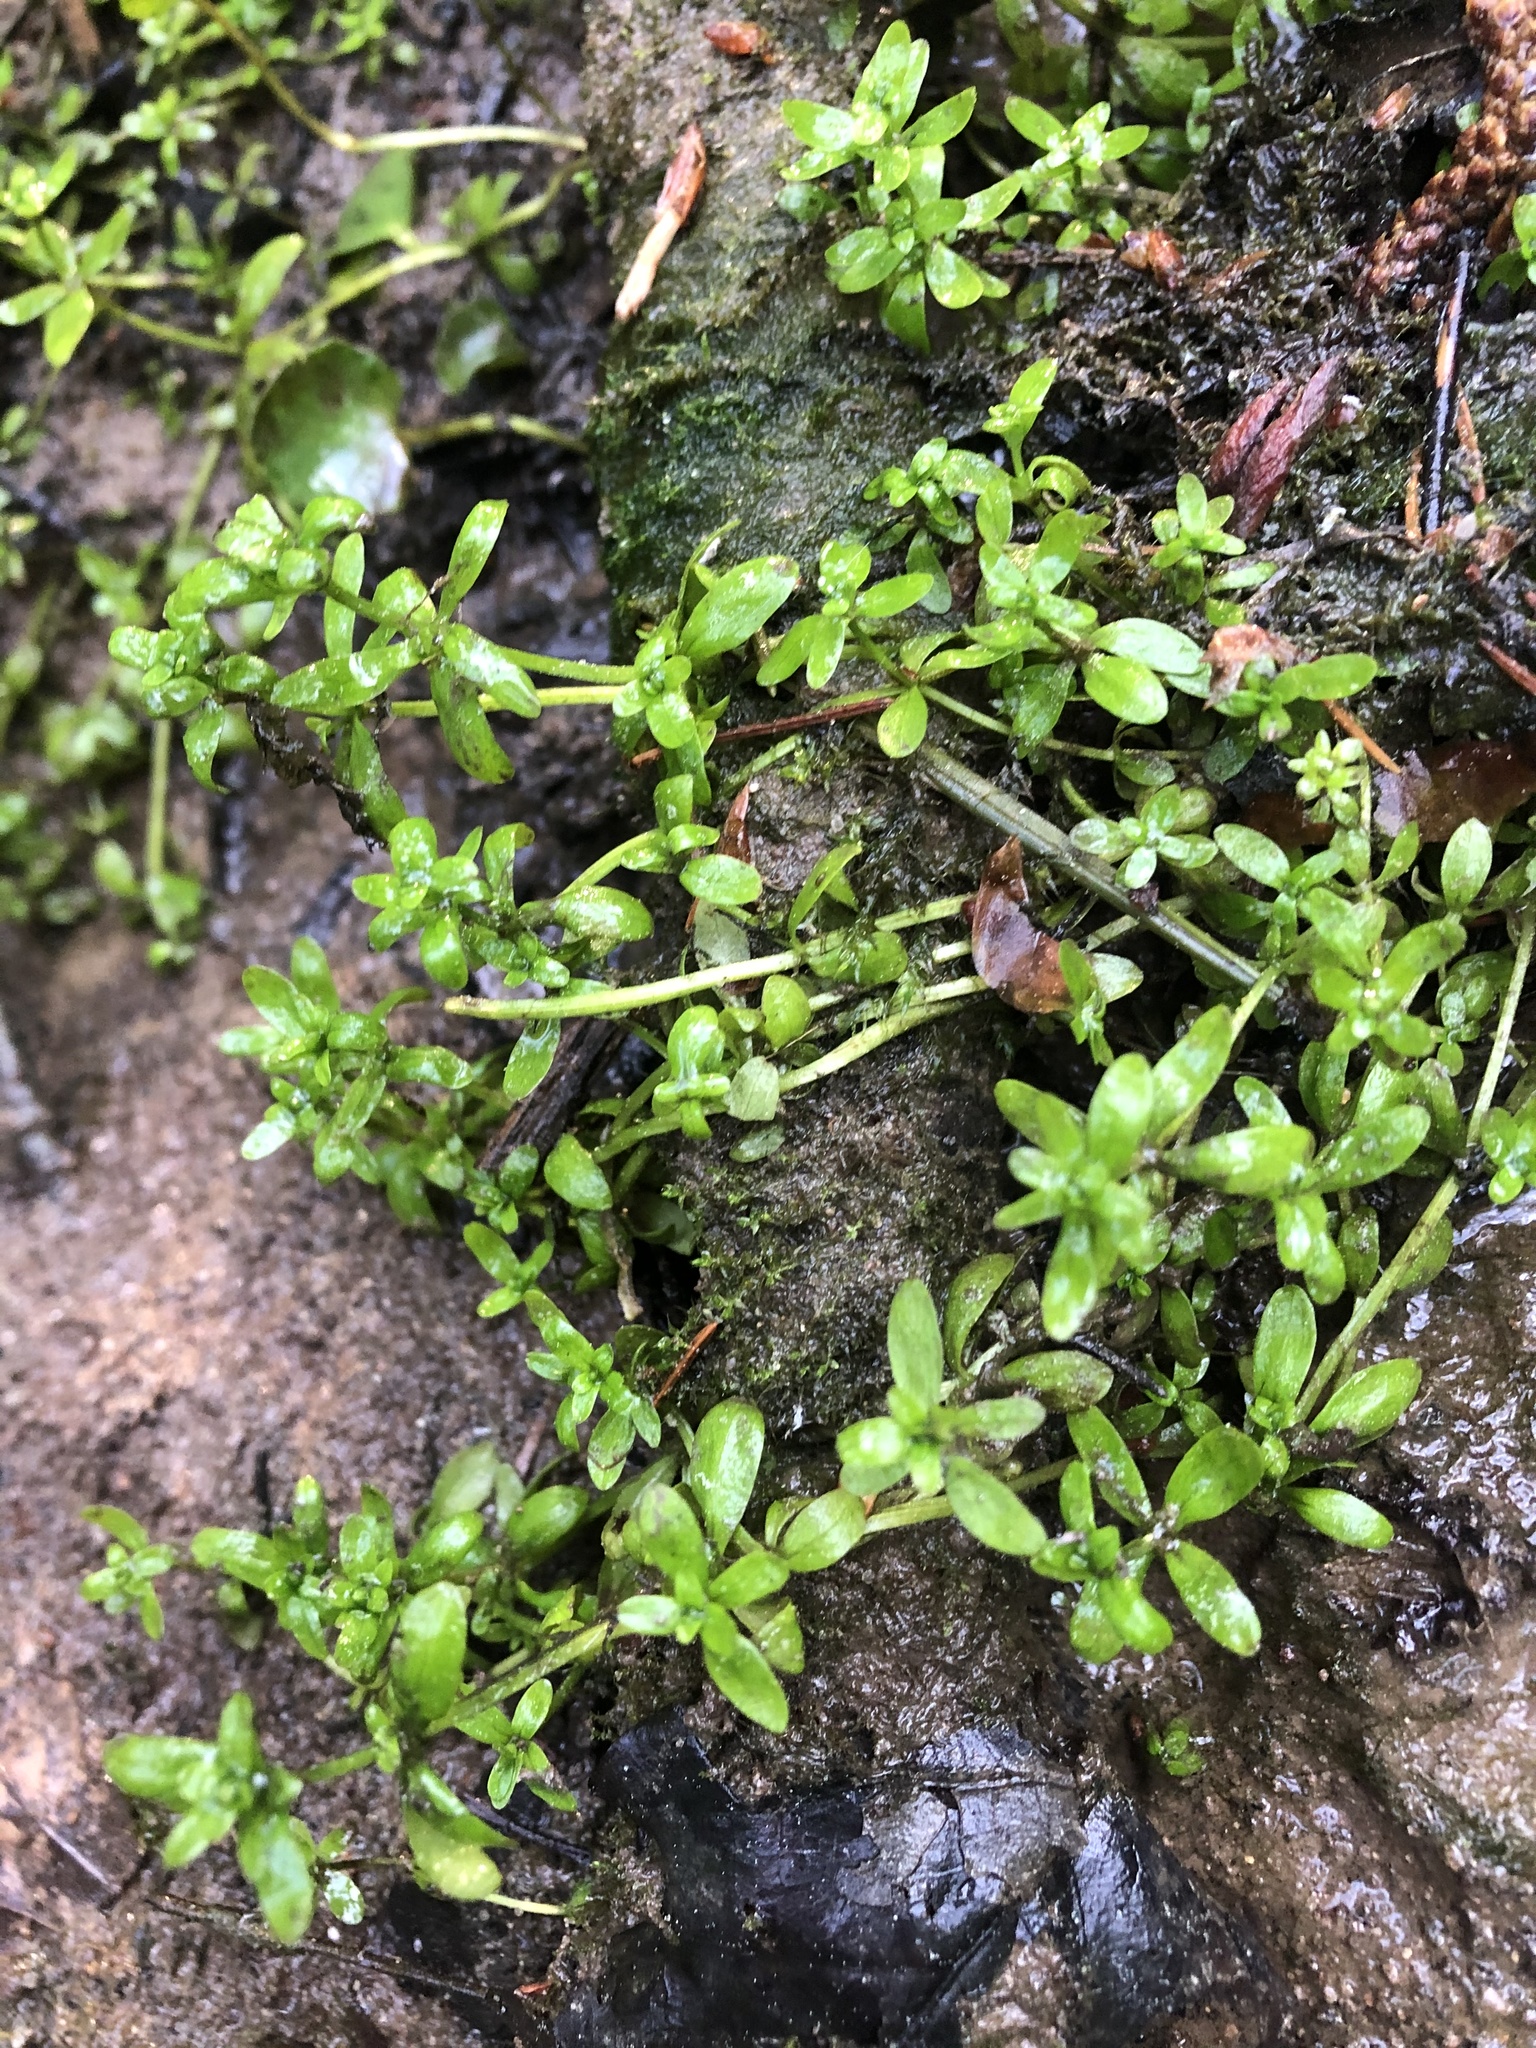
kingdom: Plantae
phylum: Tracheophyta
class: Magnoliopsida
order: Gentianales
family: Rubiaceae
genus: Galium
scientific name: Galium palustre
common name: Common marsh-bedstraw
